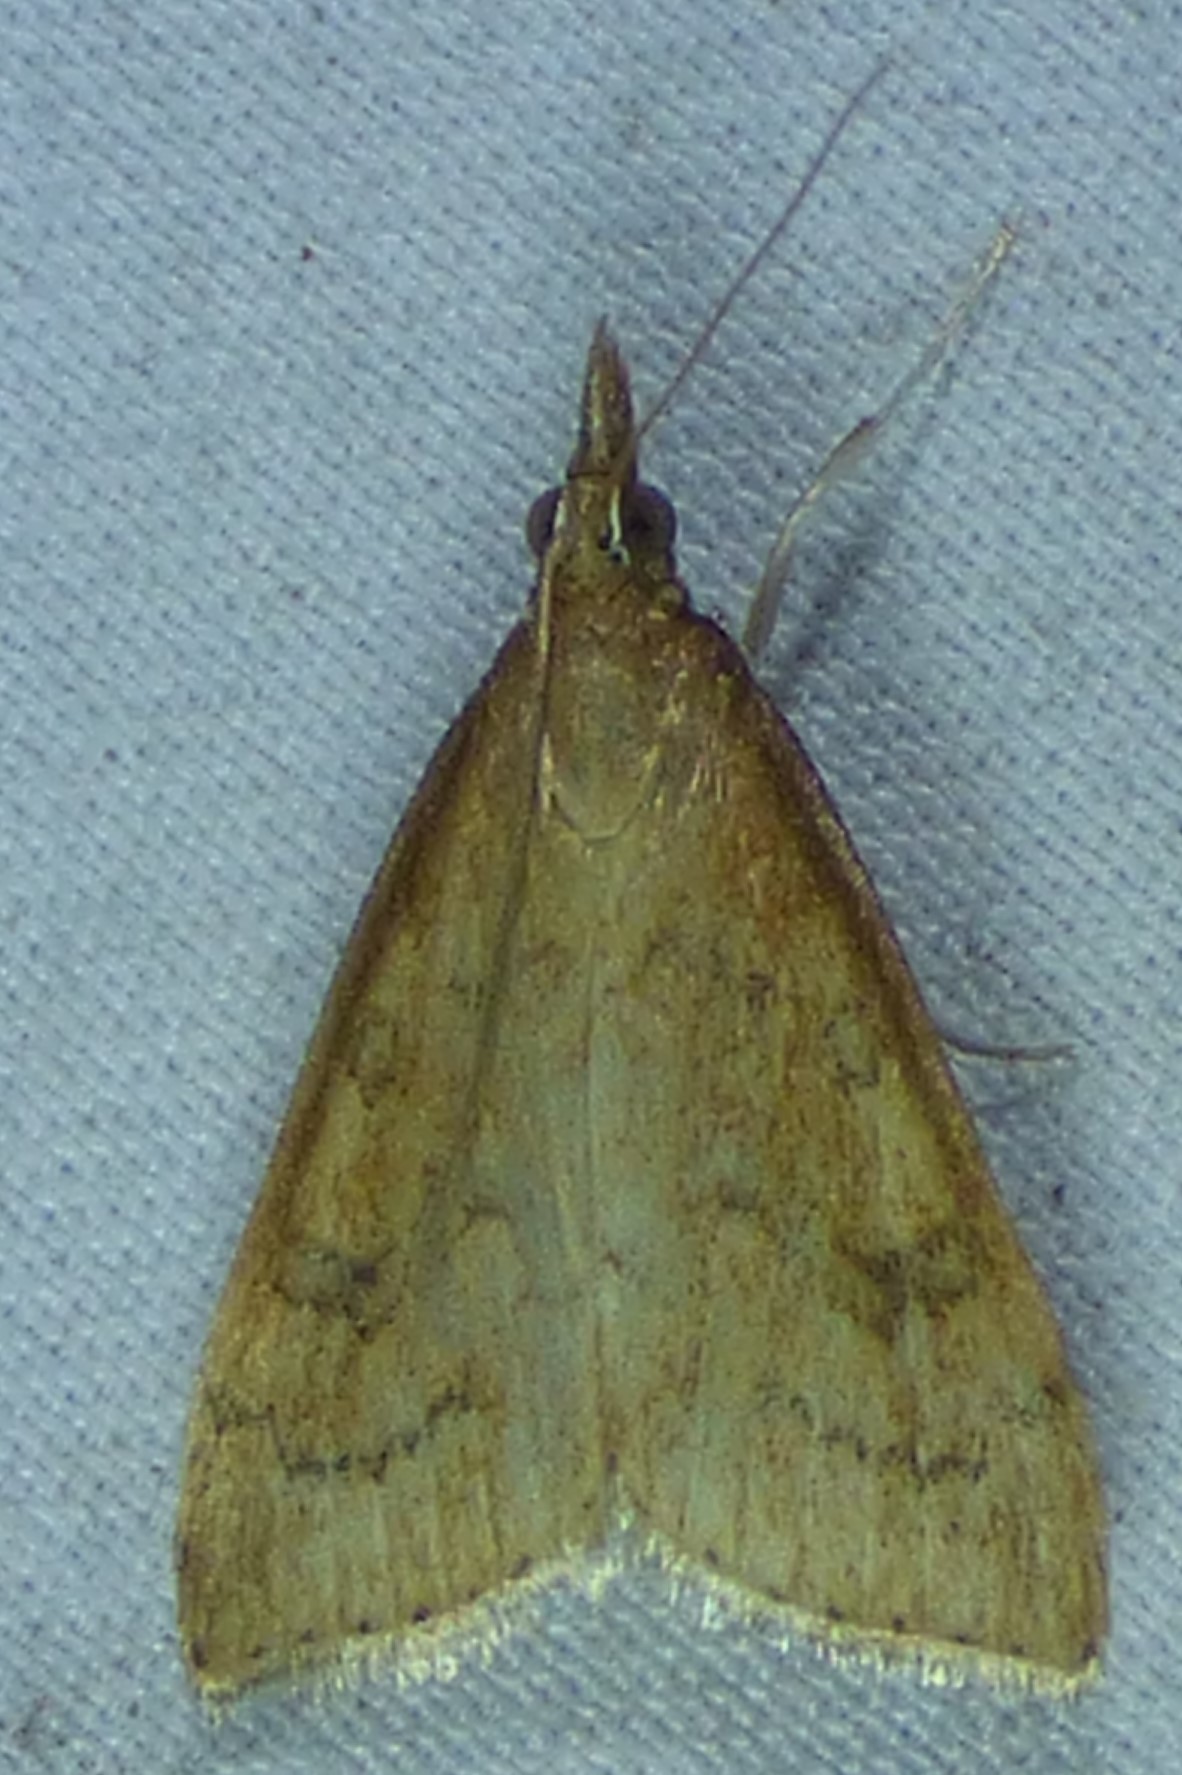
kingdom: Animalia
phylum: Arthropoda
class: Insecta
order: Lepidoptera
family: Crambidae
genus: Udea
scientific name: Udea rubigalis
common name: Celery leaftier moth
